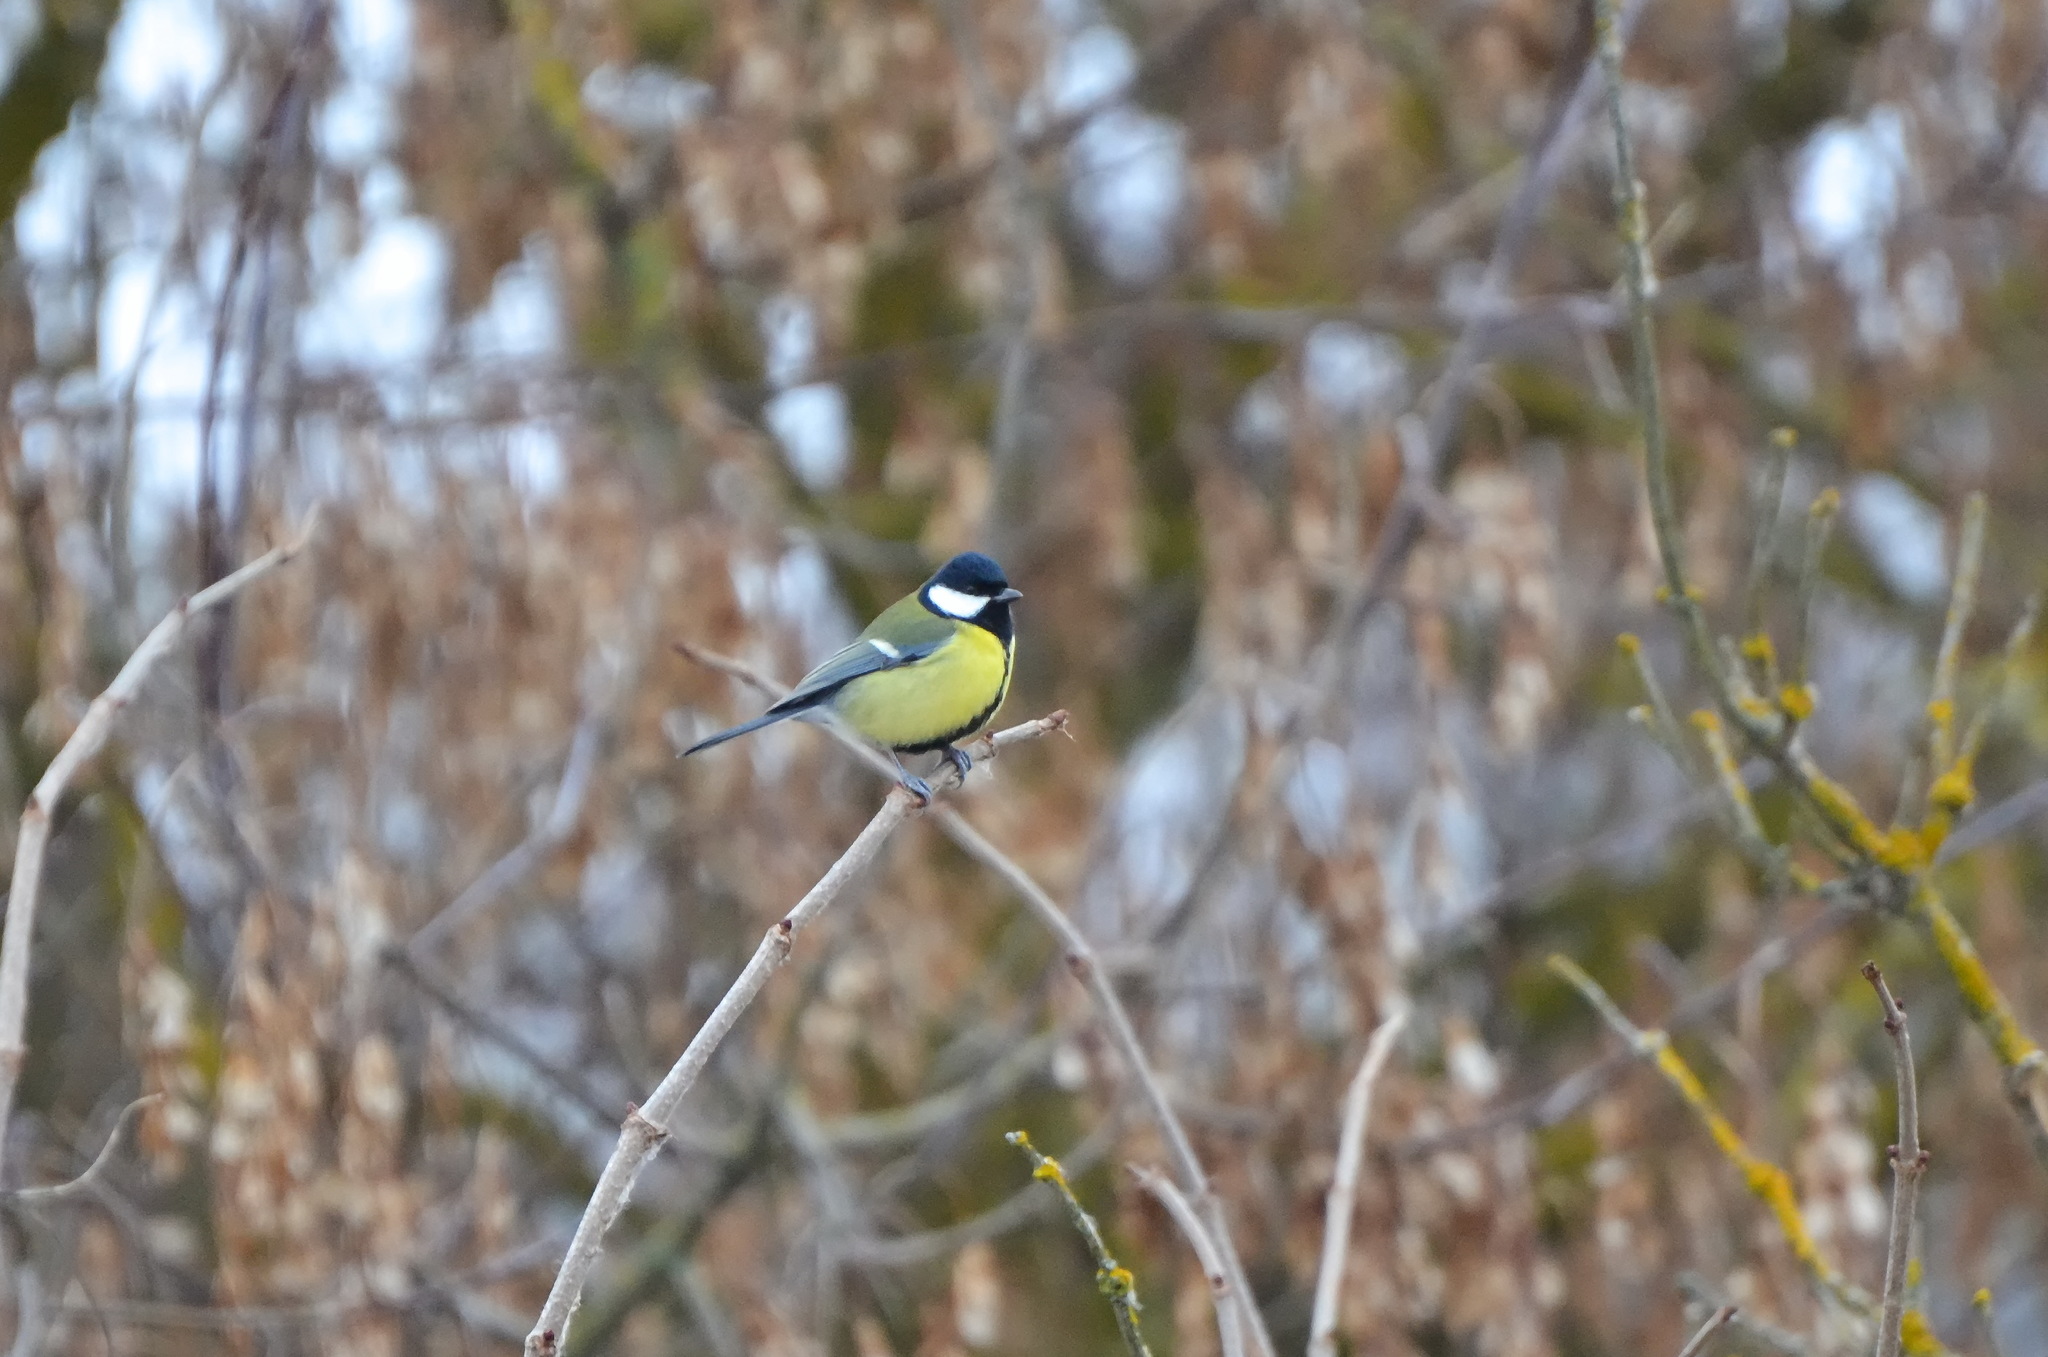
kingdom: Animalia
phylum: Chordata
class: Aves
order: Passeriformes
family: Paridae
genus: Parus
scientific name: Parus major
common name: Great tit
